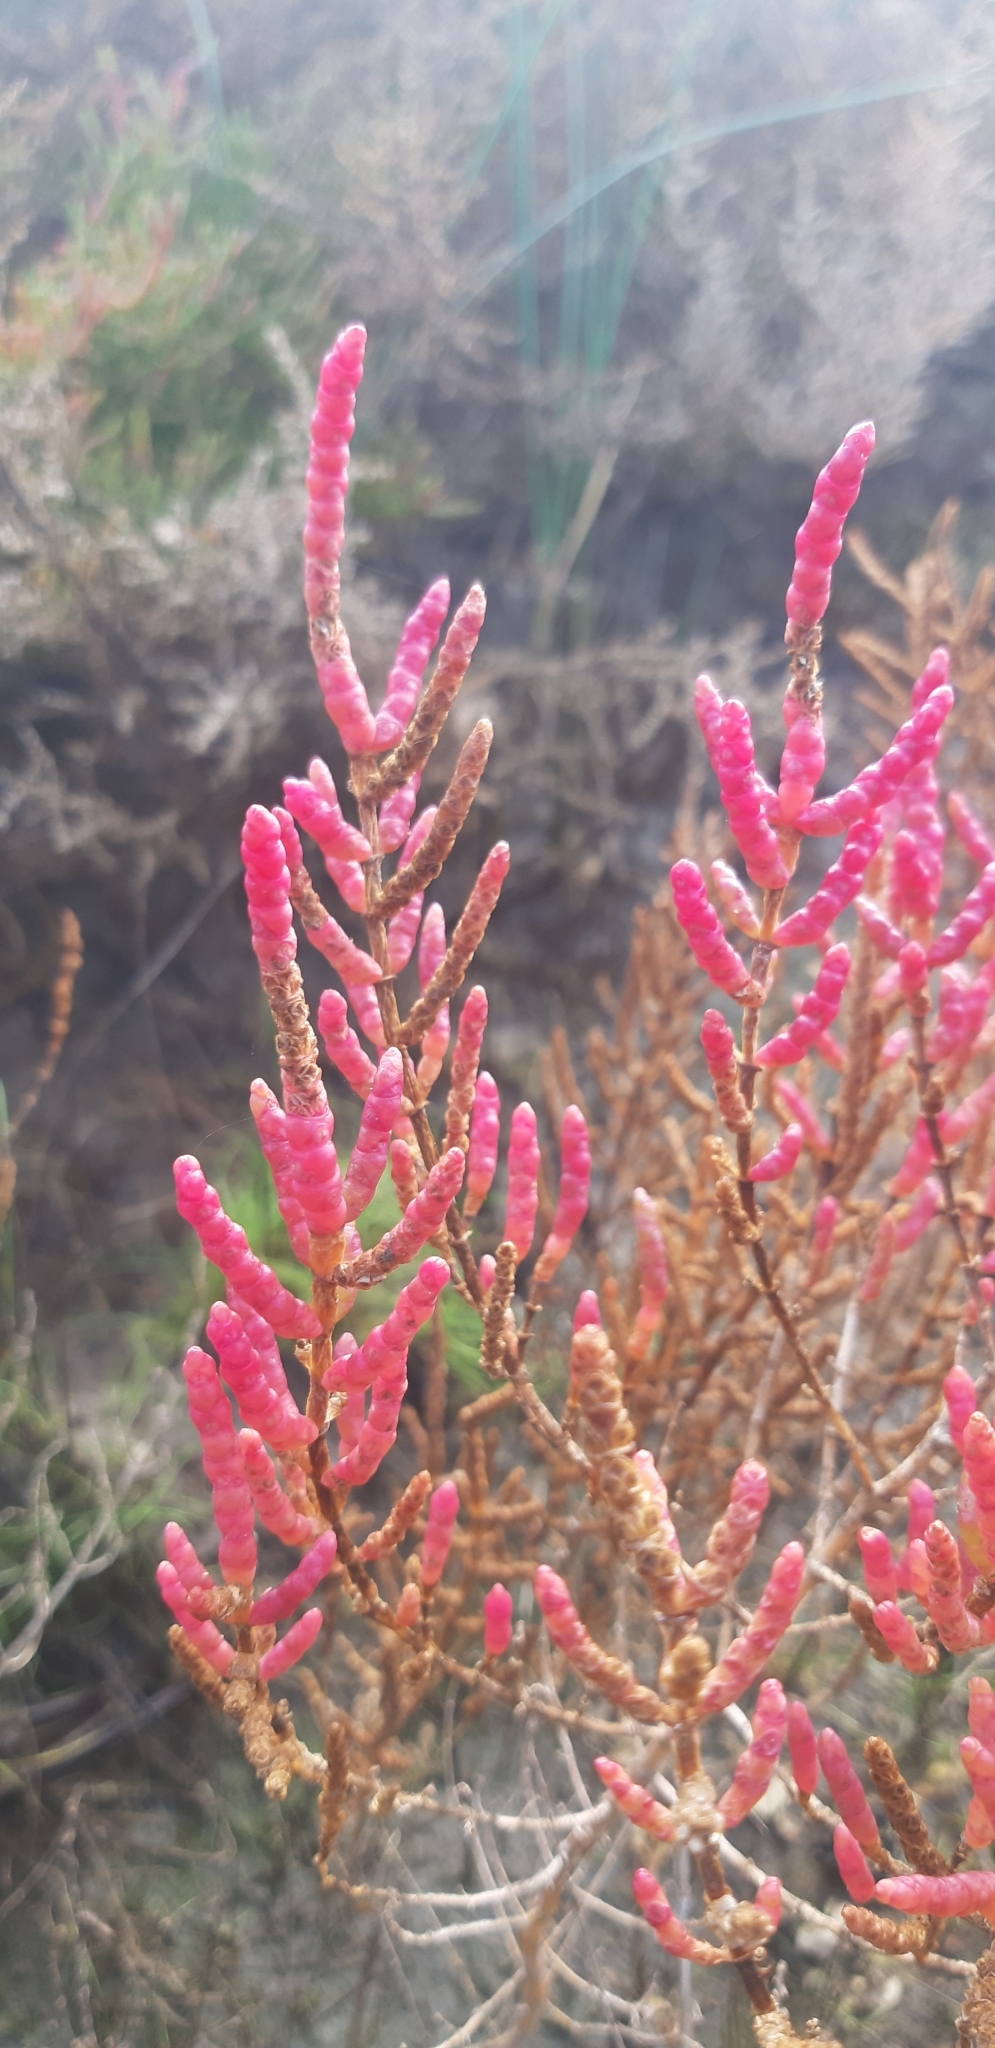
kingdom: Plantae
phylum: Tracheophyta
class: Magnoliopsida
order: Caryophyllales
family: Amaranthaceae
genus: Salicornia
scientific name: Salicornia perennans
